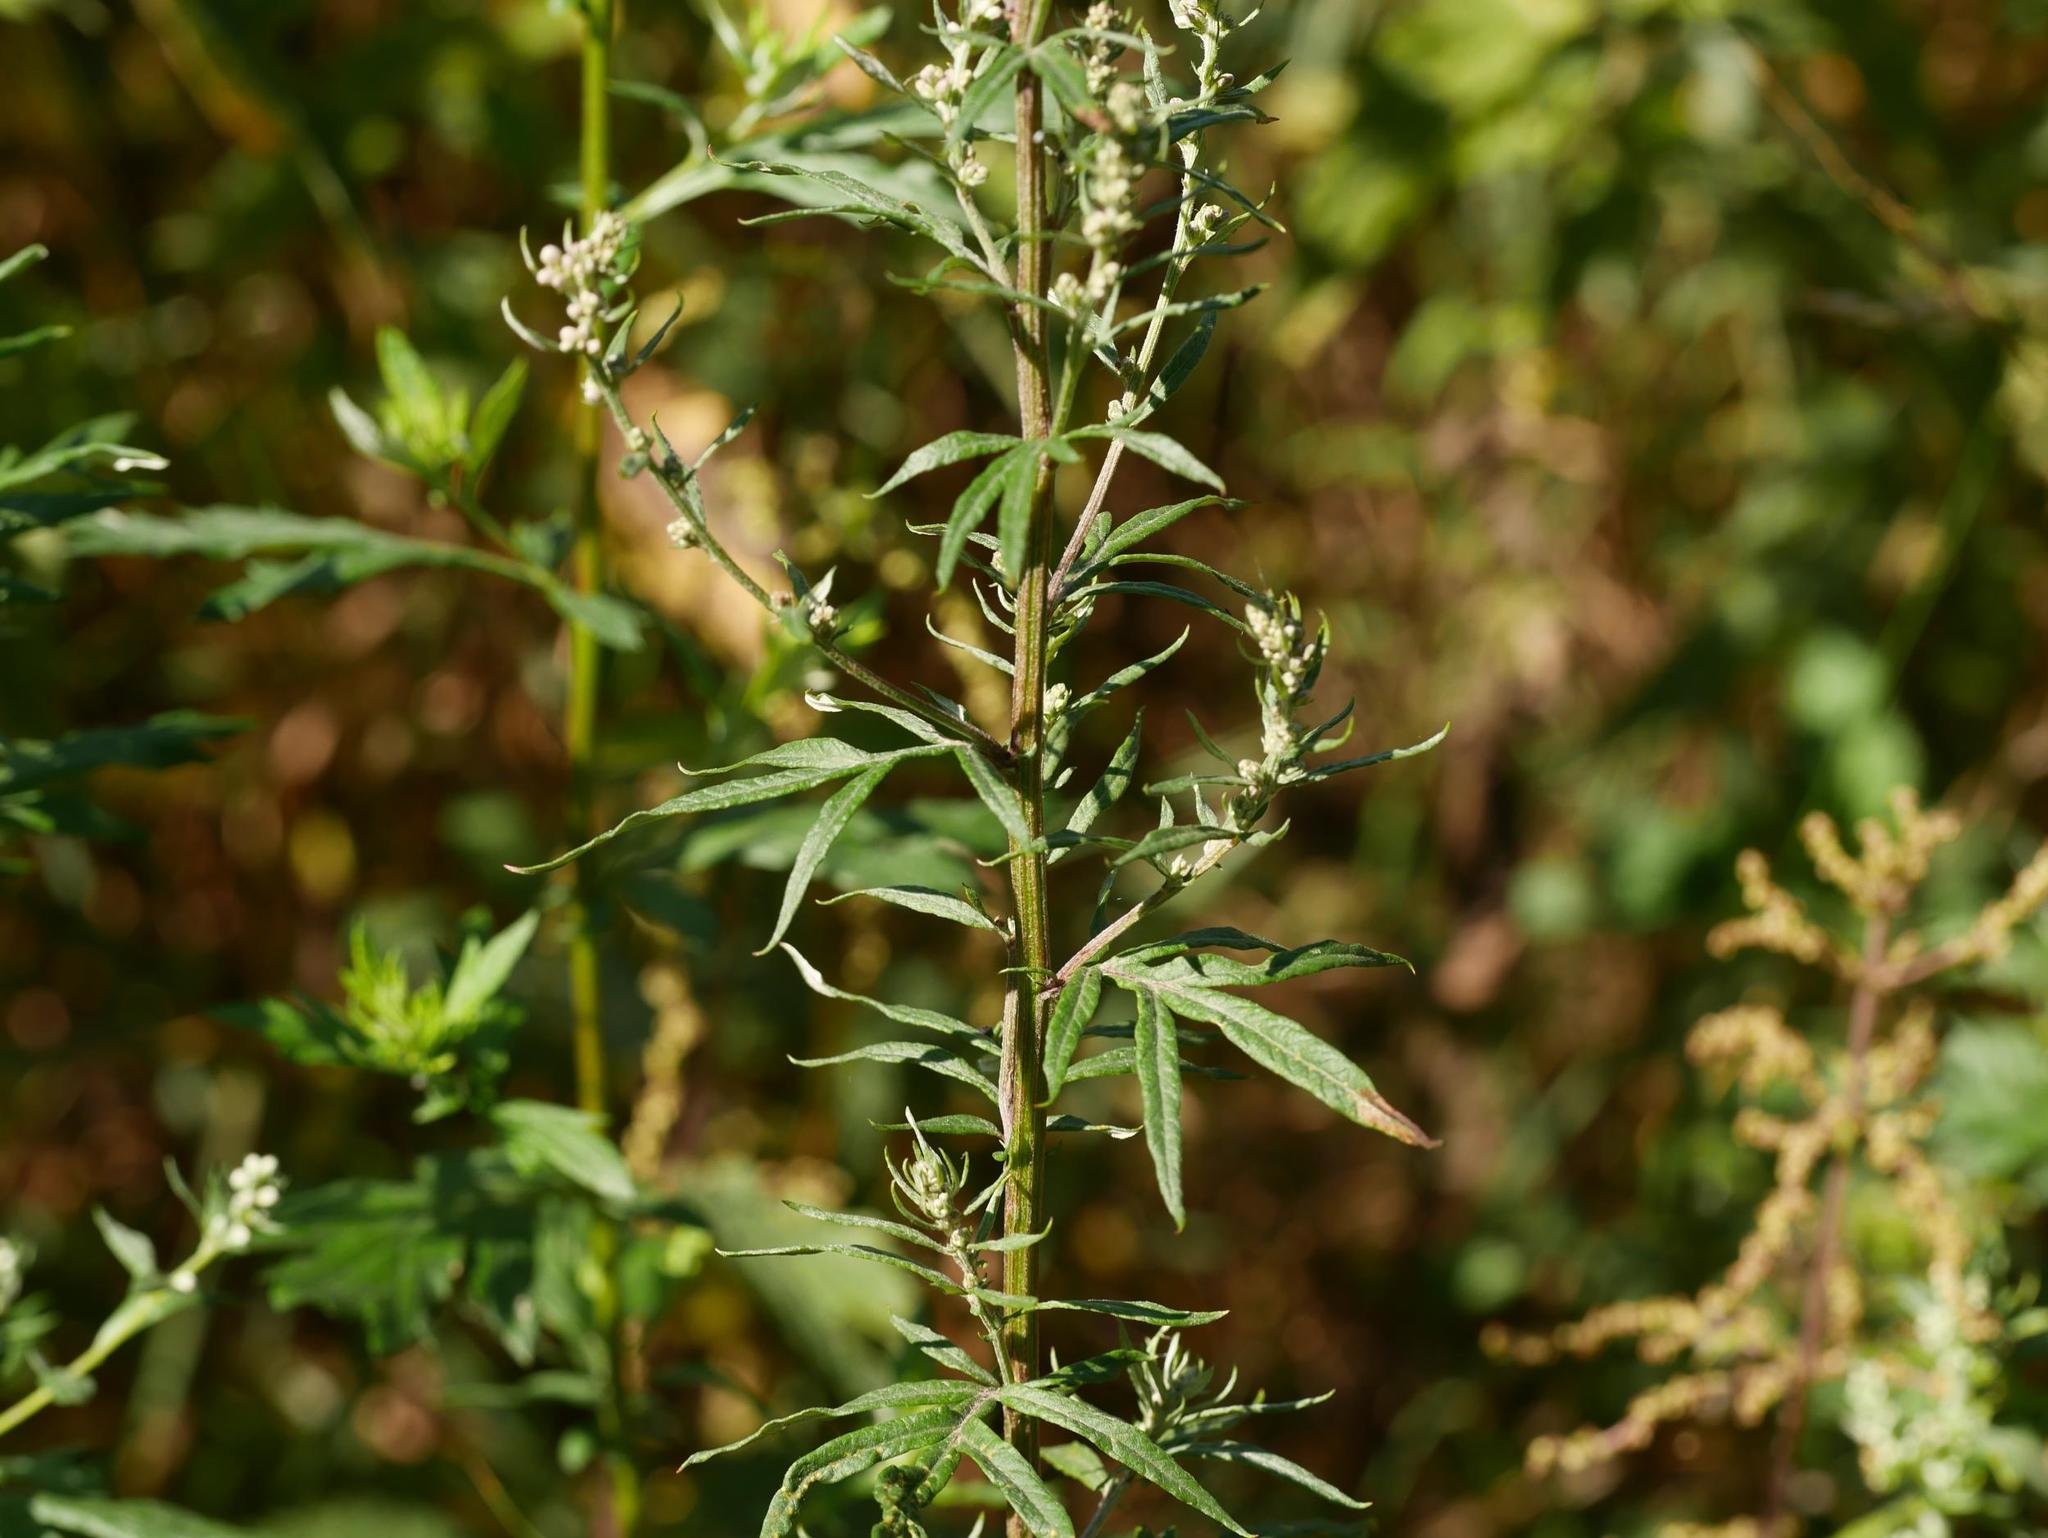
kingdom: Plantae
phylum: Tracheophyta
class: Magnoliopsida
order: Asterales
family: Asteraceae
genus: Artemisia
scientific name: Artemisia vulgaris
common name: Mugwort
